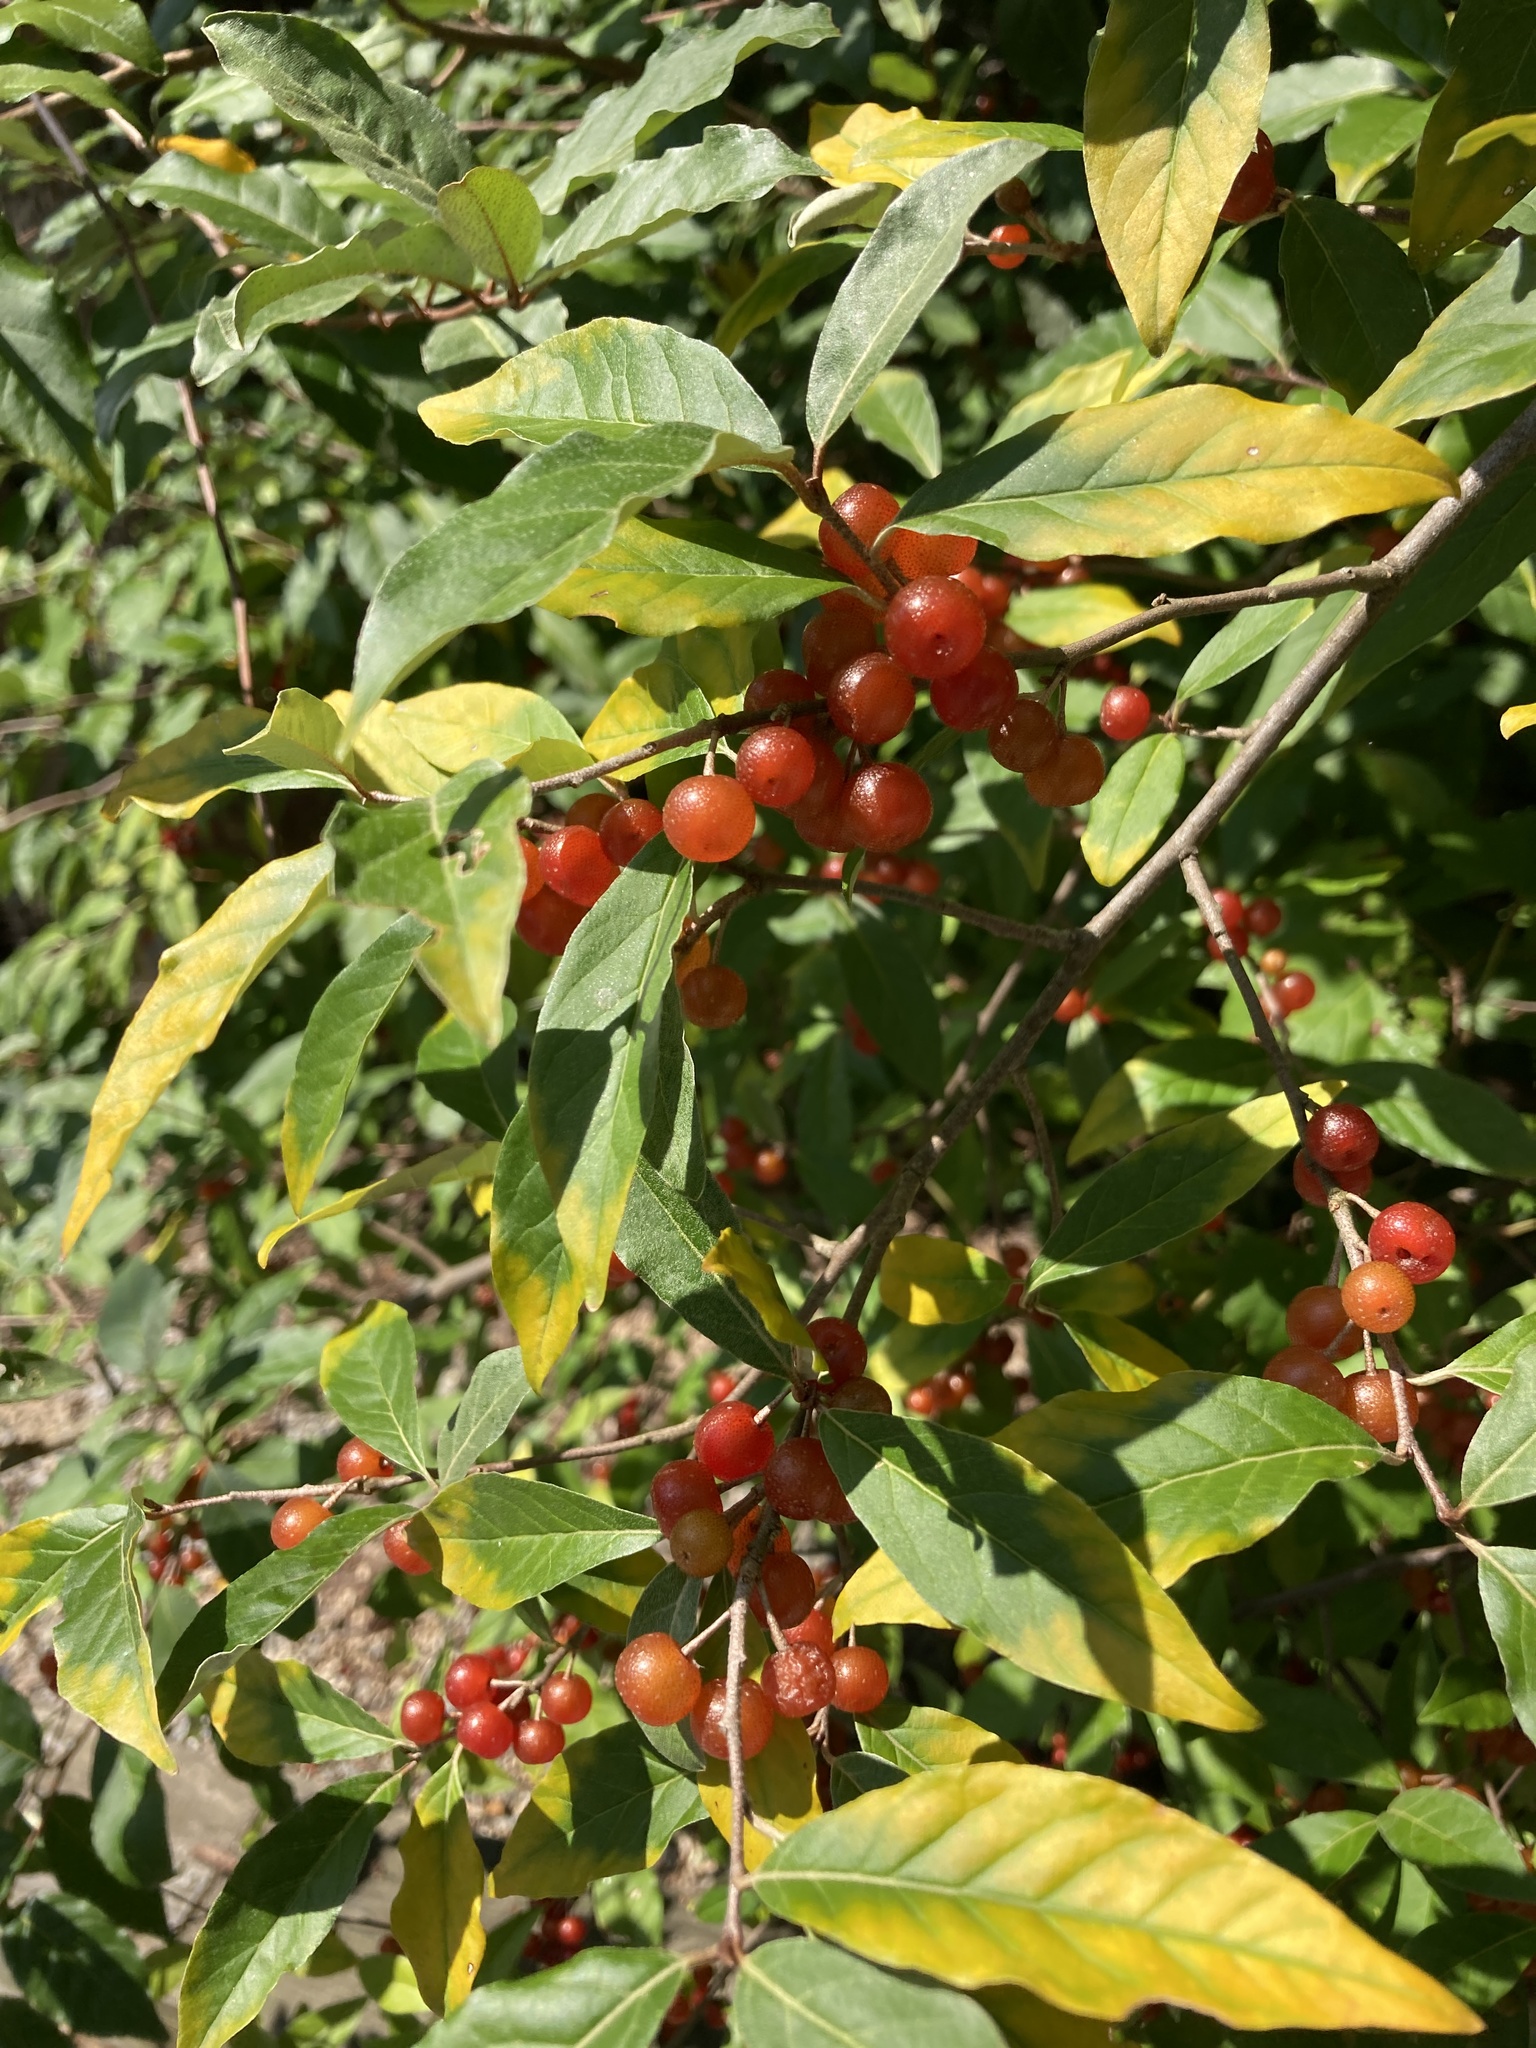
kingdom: Plantae
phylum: Tracheophyta
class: Magnoliopsida
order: Rosales
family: Elaeagnaceae
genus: Elaeagnus
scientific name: Elaeagnus umbellata
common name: Autumn olive
